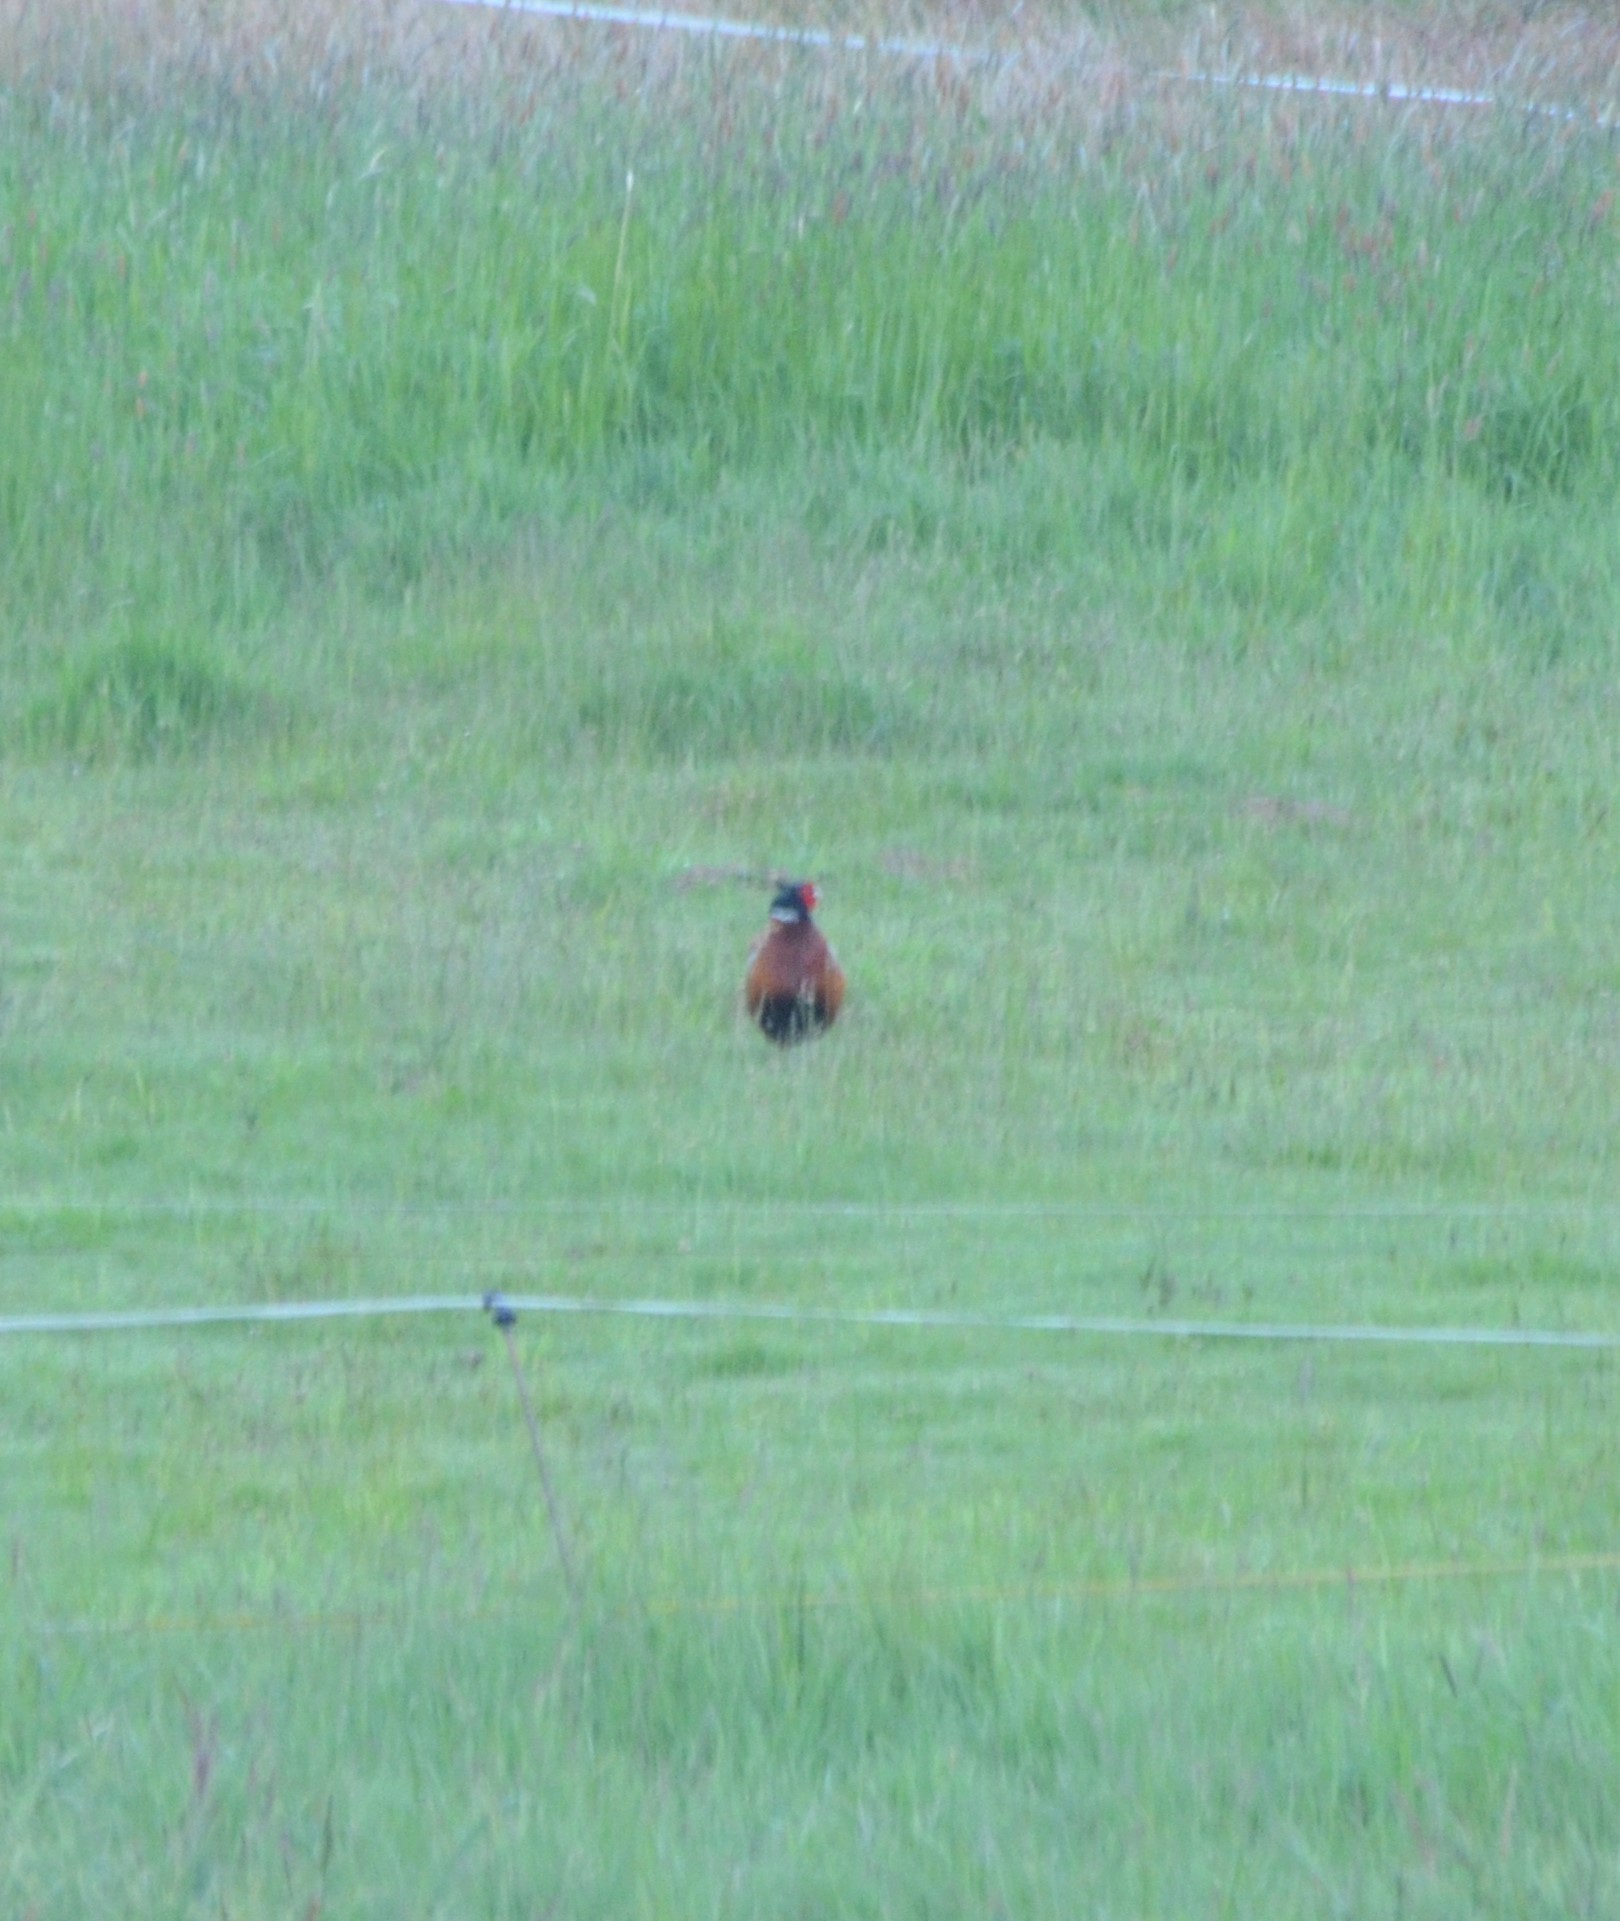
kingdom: Animalia
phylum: Chordata
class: Aves
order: Galliformes
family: Phasianidae
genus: Phasianus
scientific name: Phasianus colchicus
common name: Common pheasant
